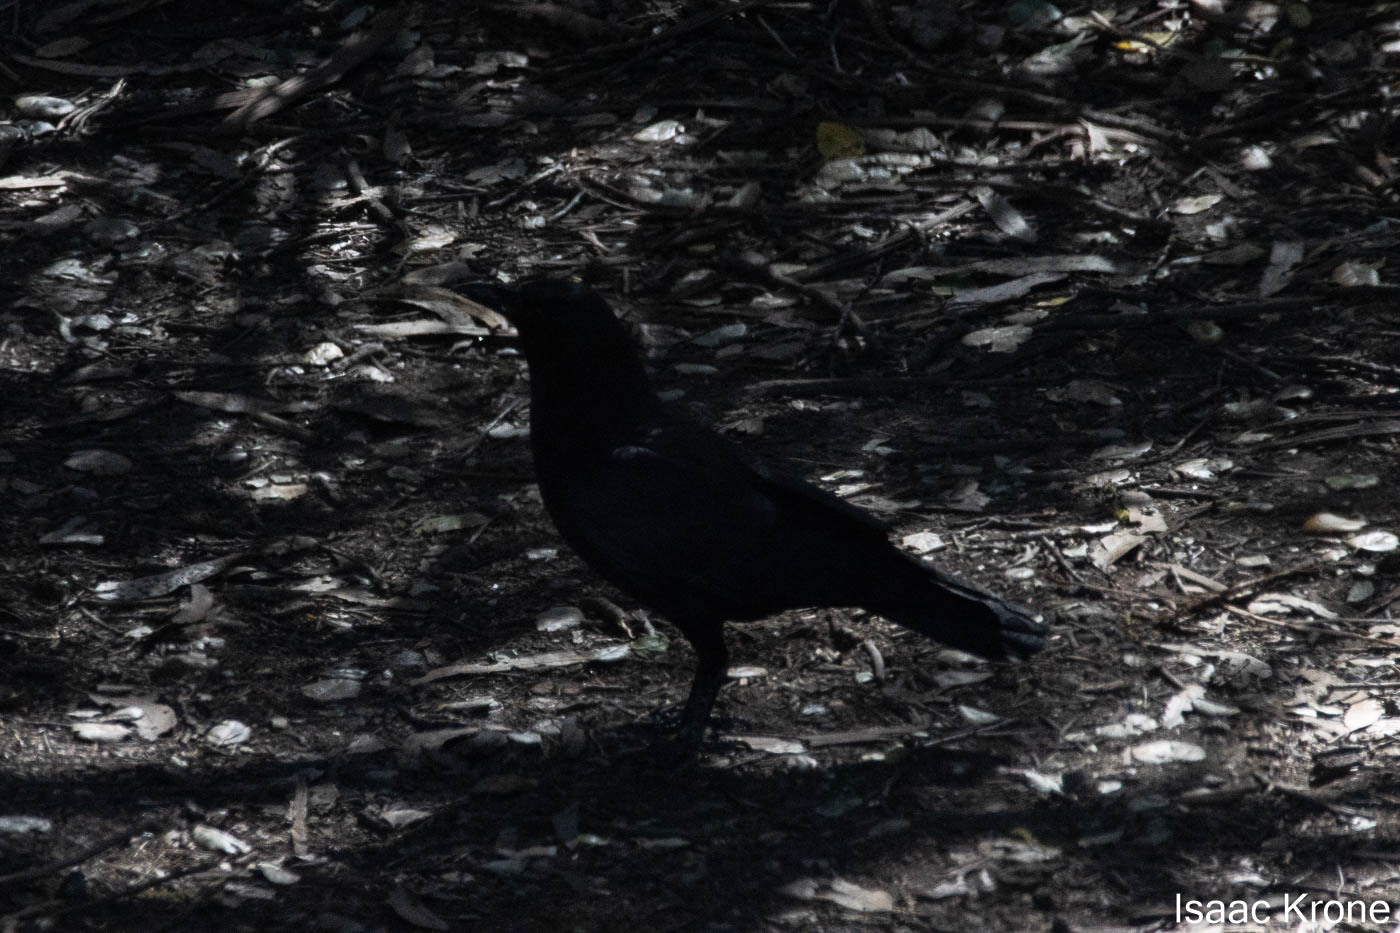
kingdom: Animalia
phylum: Chordata
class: Aves
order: Passeriformes
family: Corvidae
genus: Corvus
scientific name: Corvus brachyrhynchos
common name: American crow
